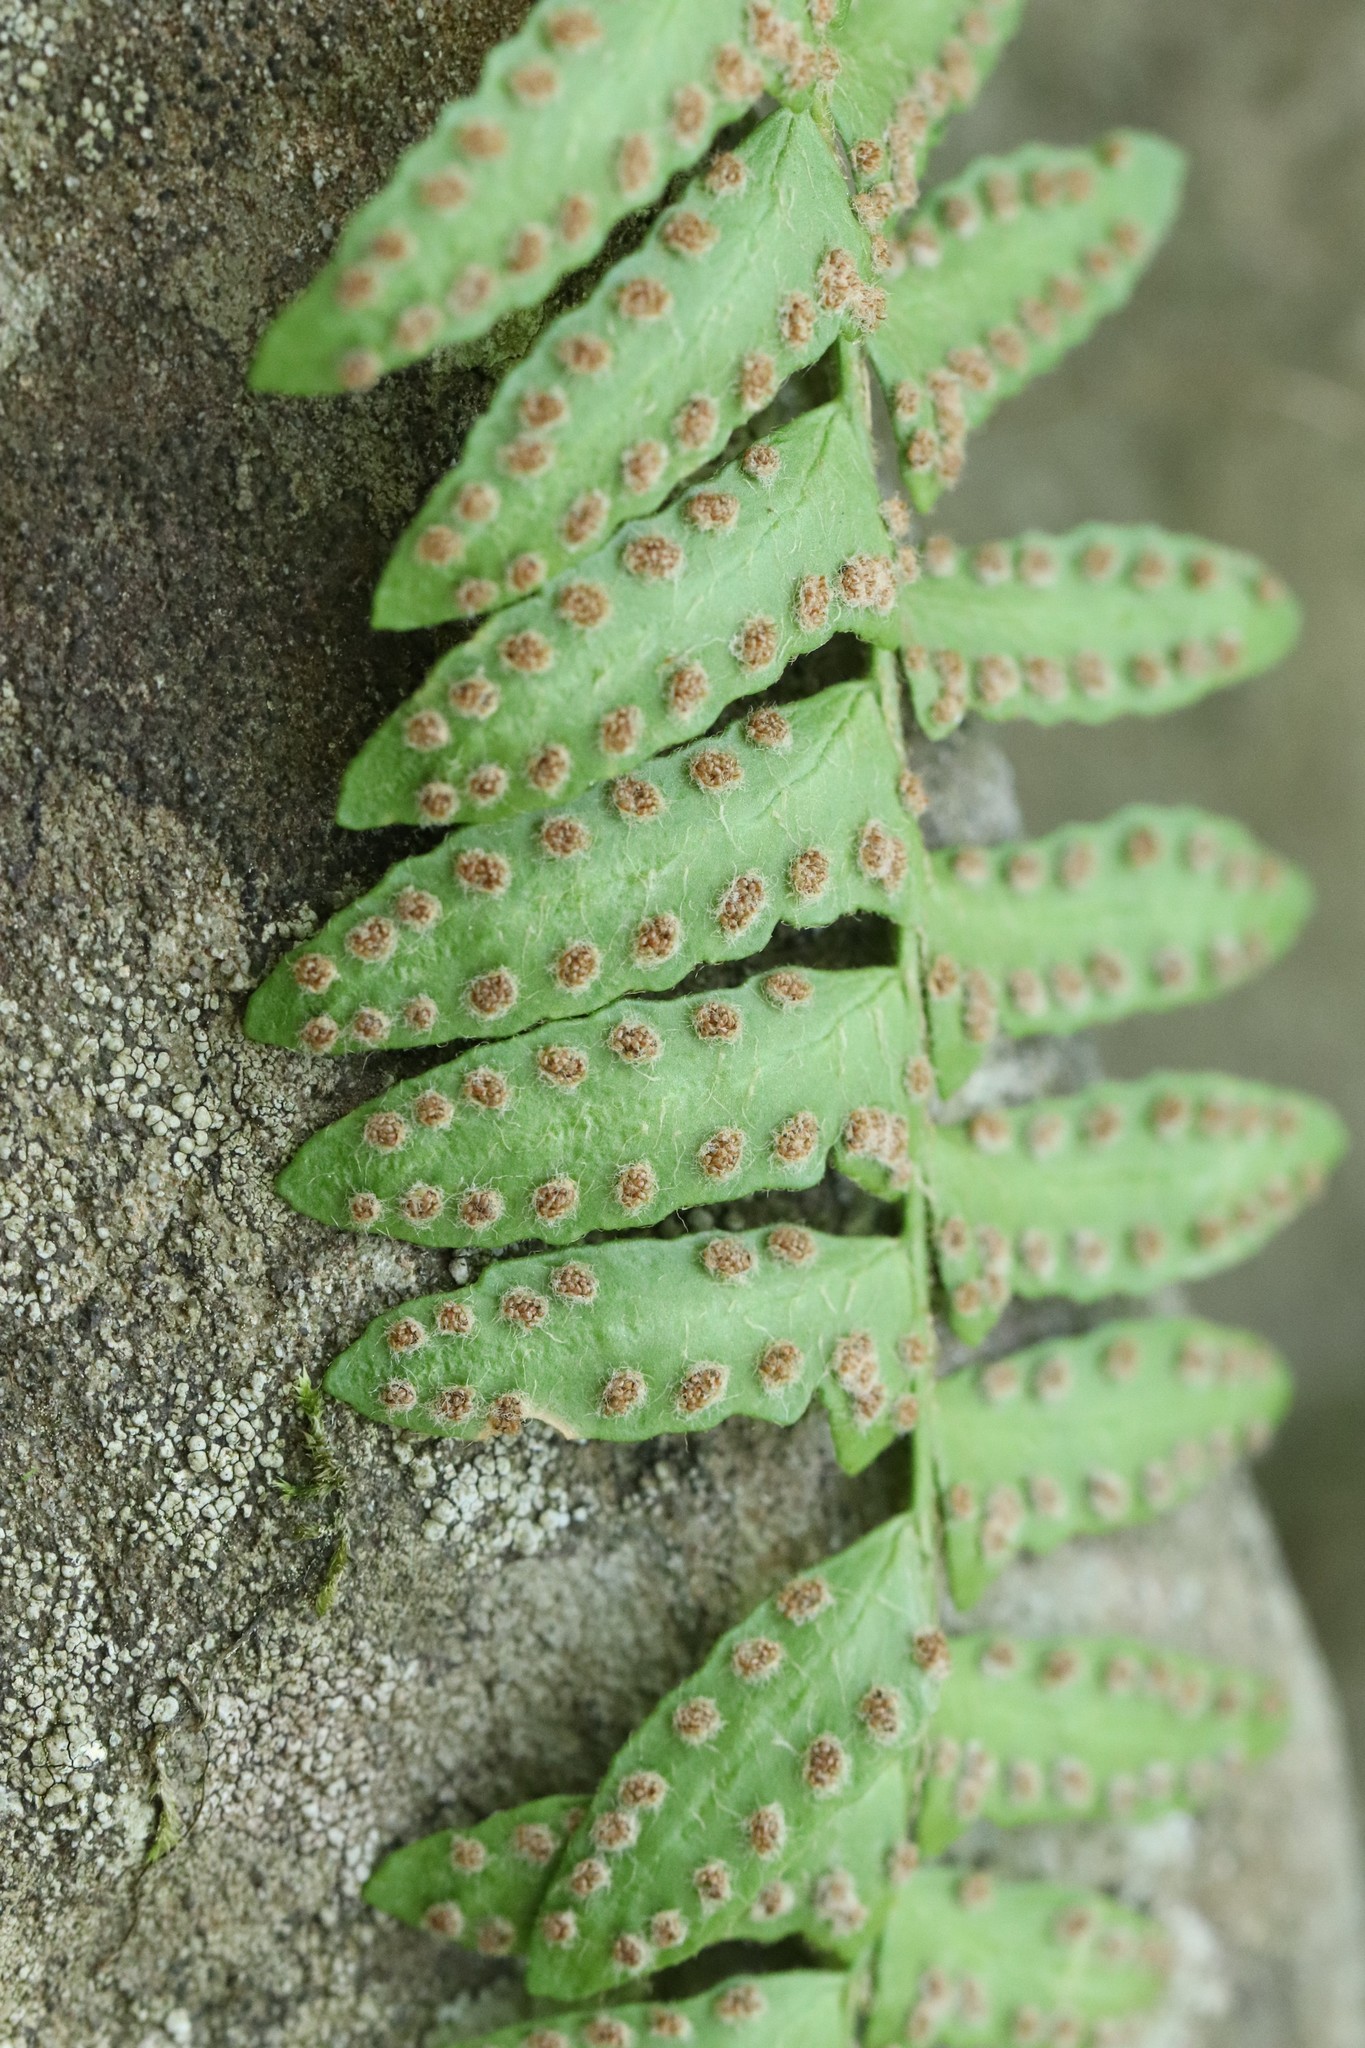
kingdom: Plantae
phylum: Tracheophyta
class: Polypodiopsida
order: Polypodiales
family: Woodsiaceae
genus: Woodsia
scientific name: Woodsia polystichoides
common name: Holly fern woodsia
